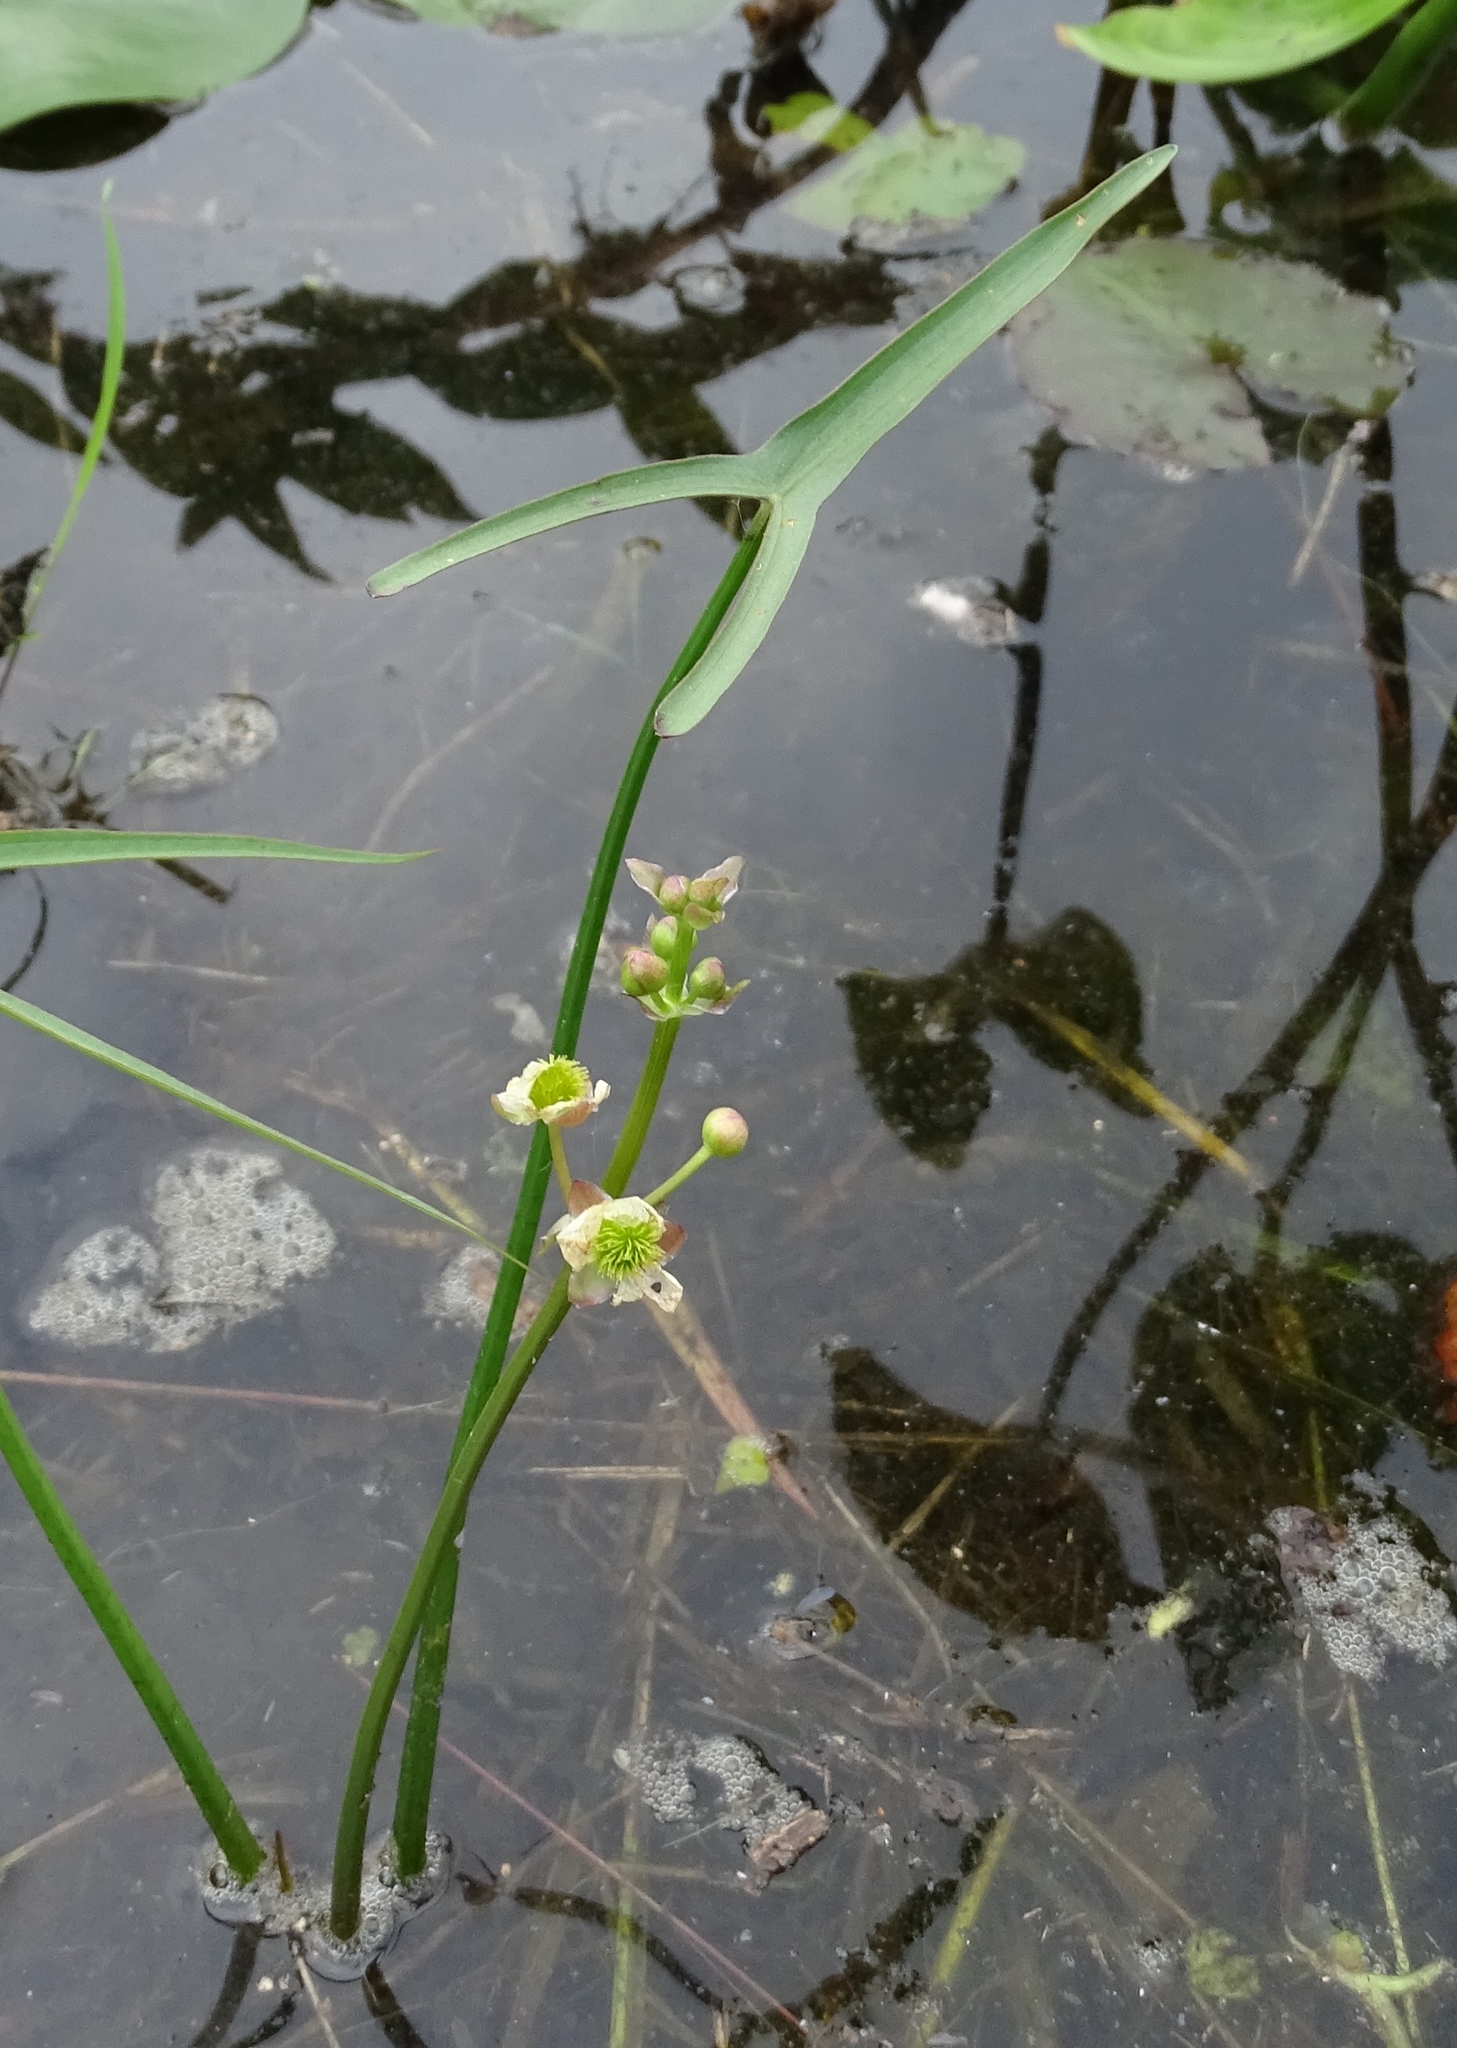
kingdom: Plantae
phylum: Tracheophyta
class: Liliopsida
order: Alismatales
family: Alismataceae
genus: Sagittaria
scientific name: Sagittaria engelmanniana
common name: Acid-water arrowhead
